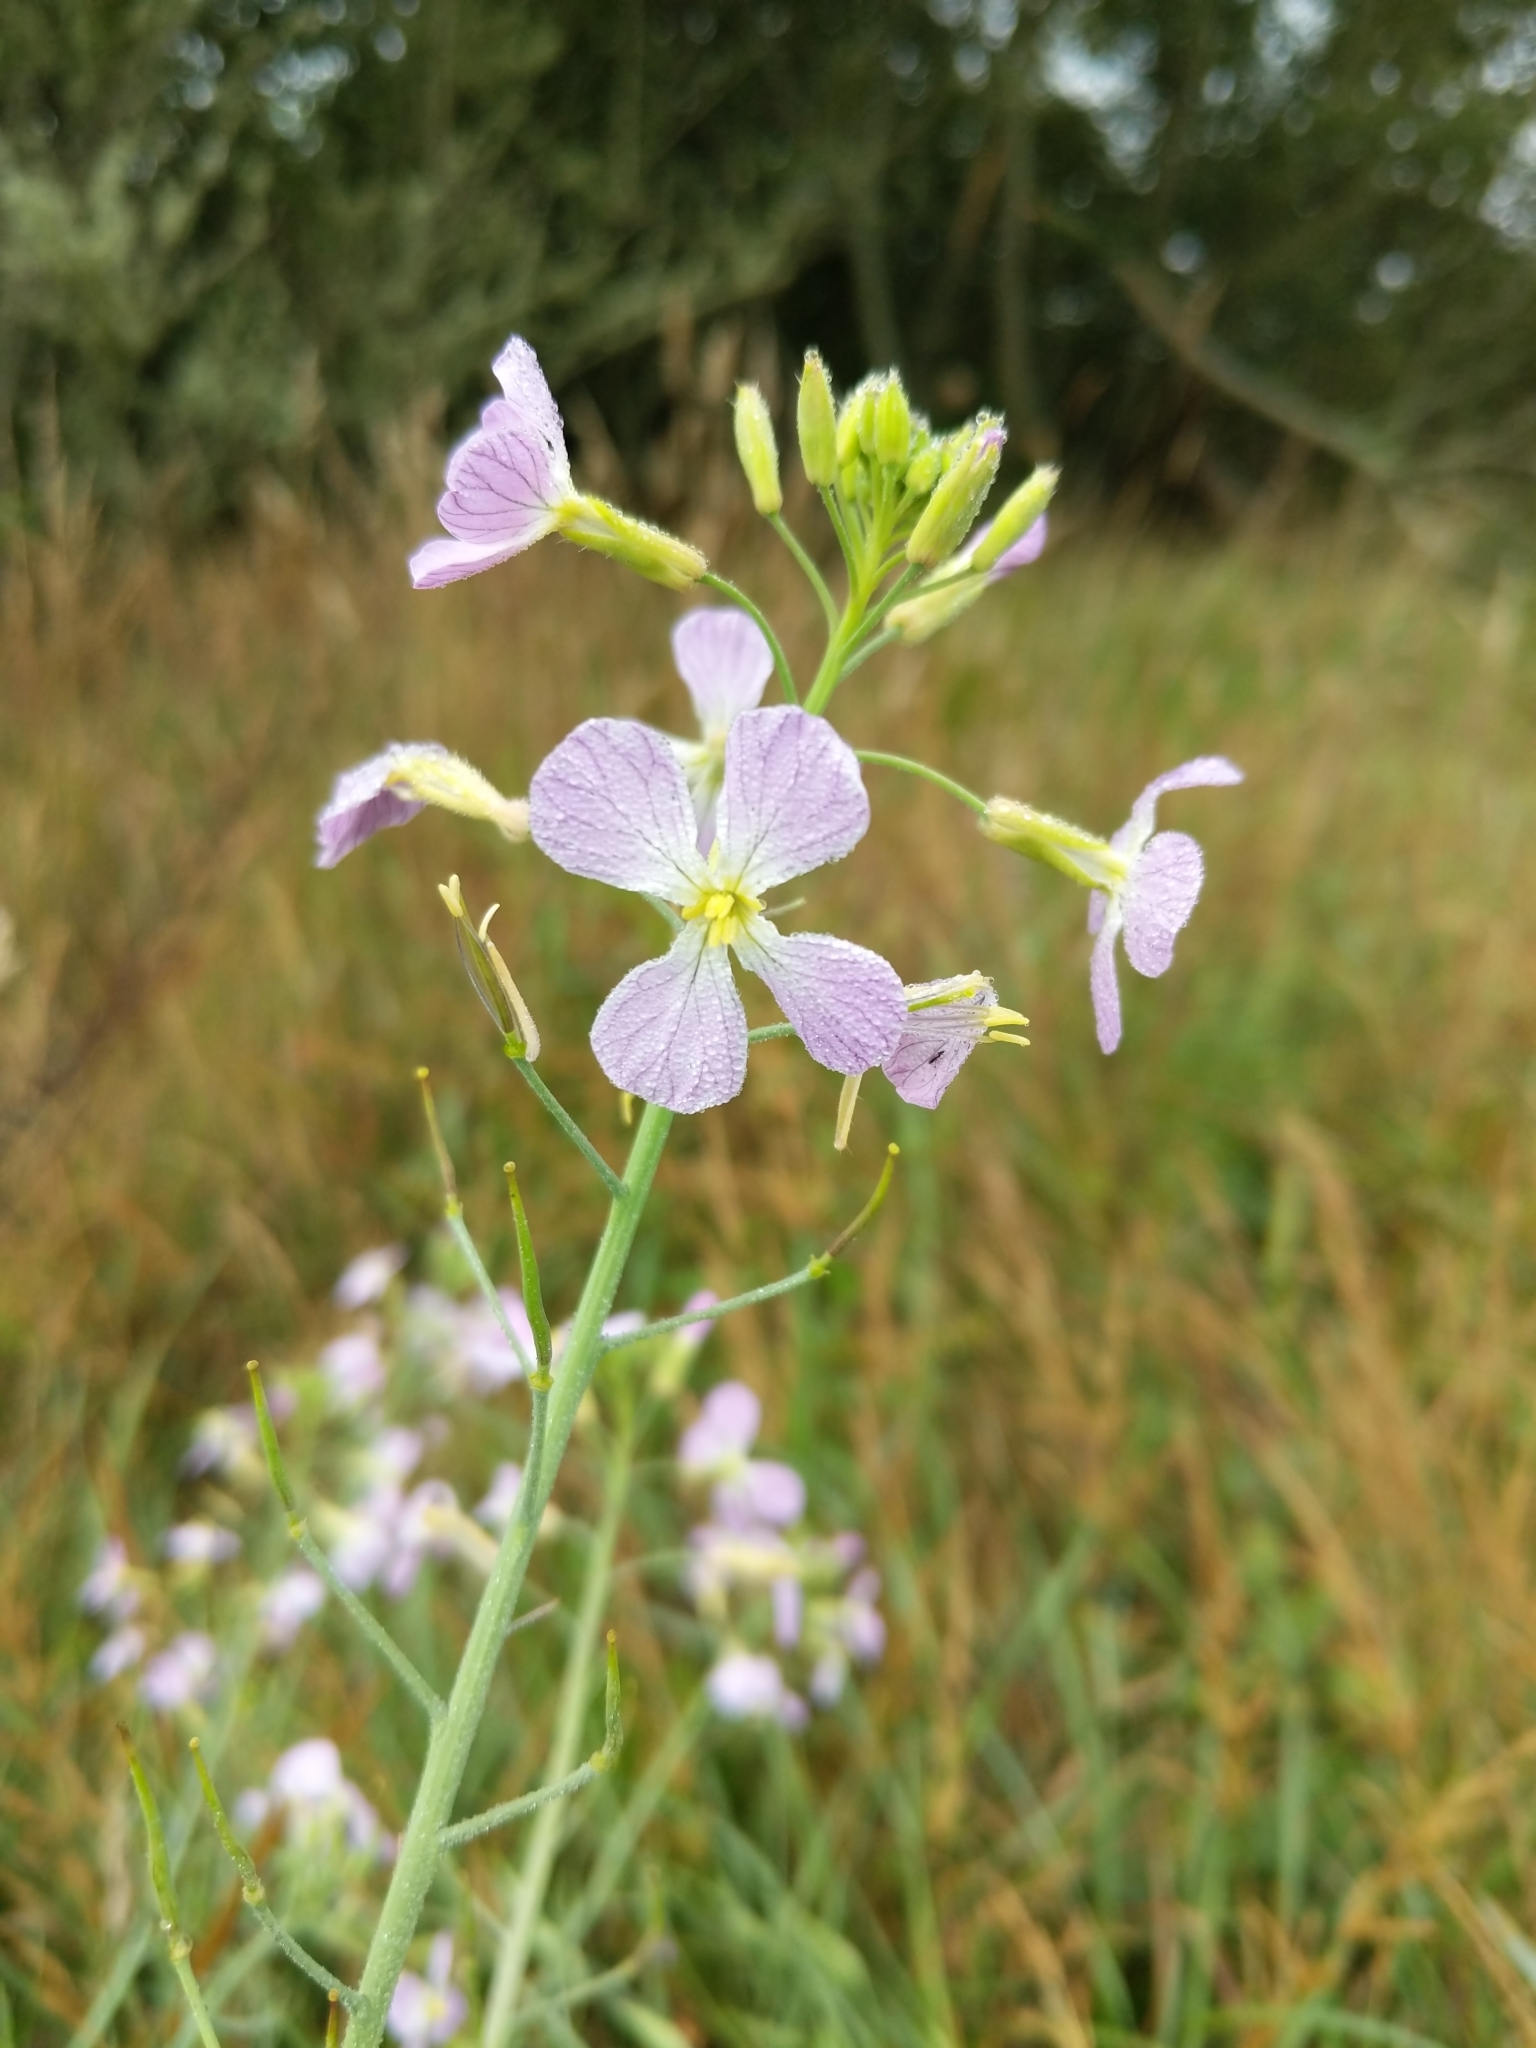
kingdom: Plantae
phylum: Tracheophyta
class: Magnoliopsida
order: Brassicales
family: Brassicaceae
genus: Raphanus
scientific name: Raphanus sativus
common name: Cultivated radish
